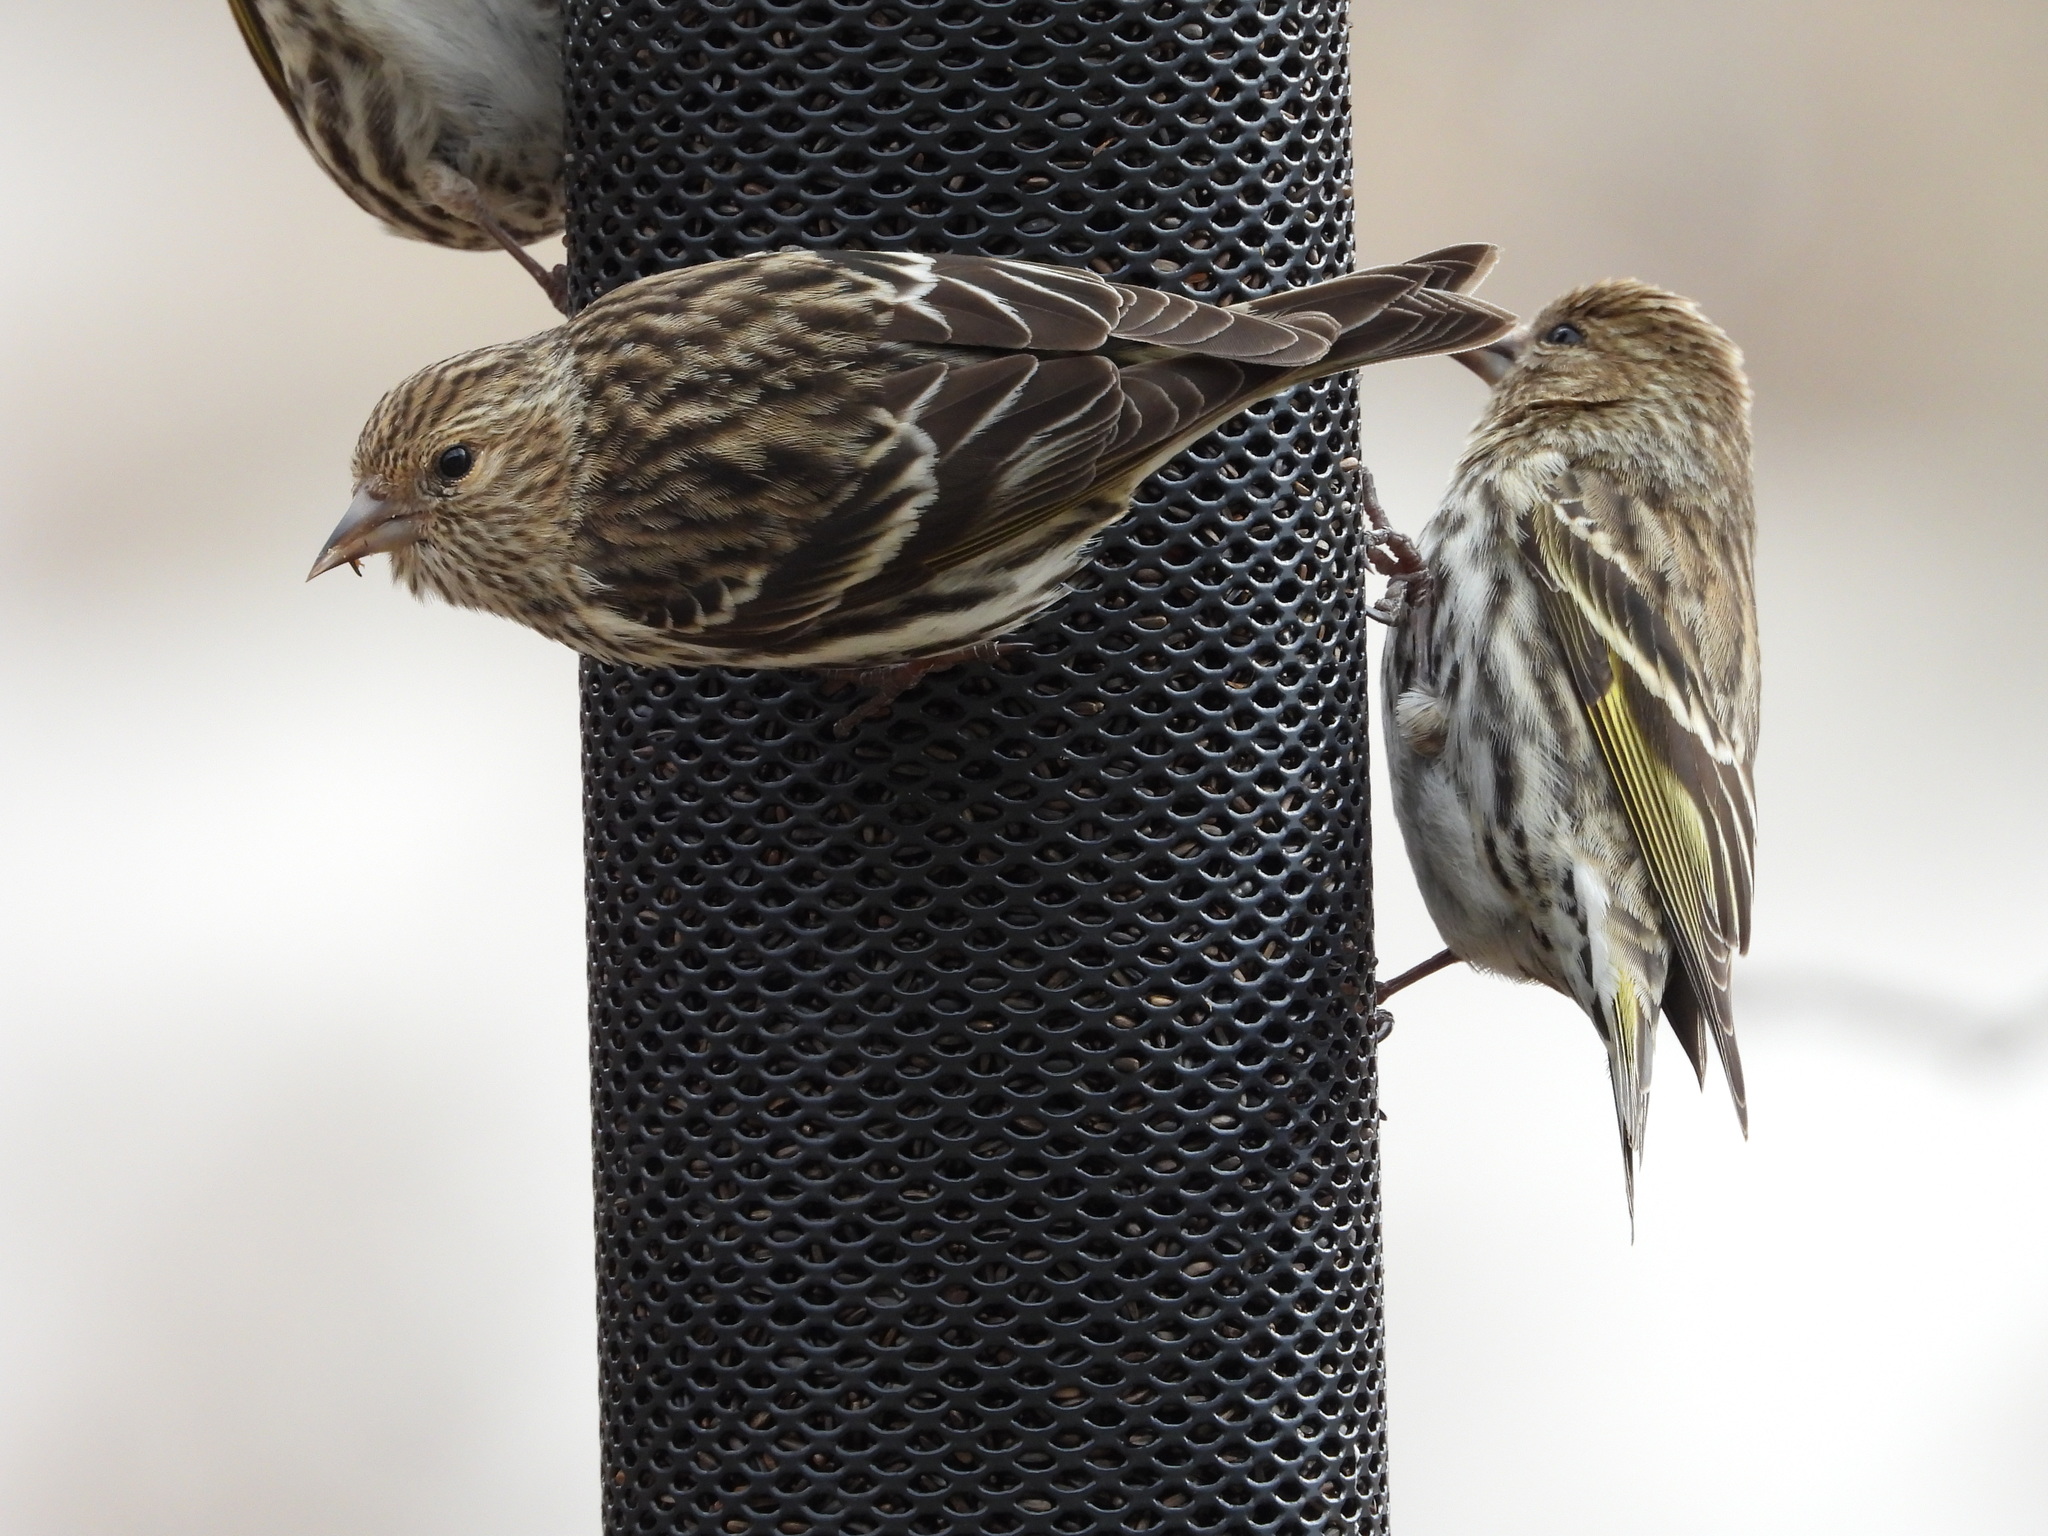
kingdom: Animalia
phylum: Chordata
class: Aves
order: Passeriformes
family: Fringillidae
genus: Spinus
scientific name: Spinus pinus
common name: Pine siskin
